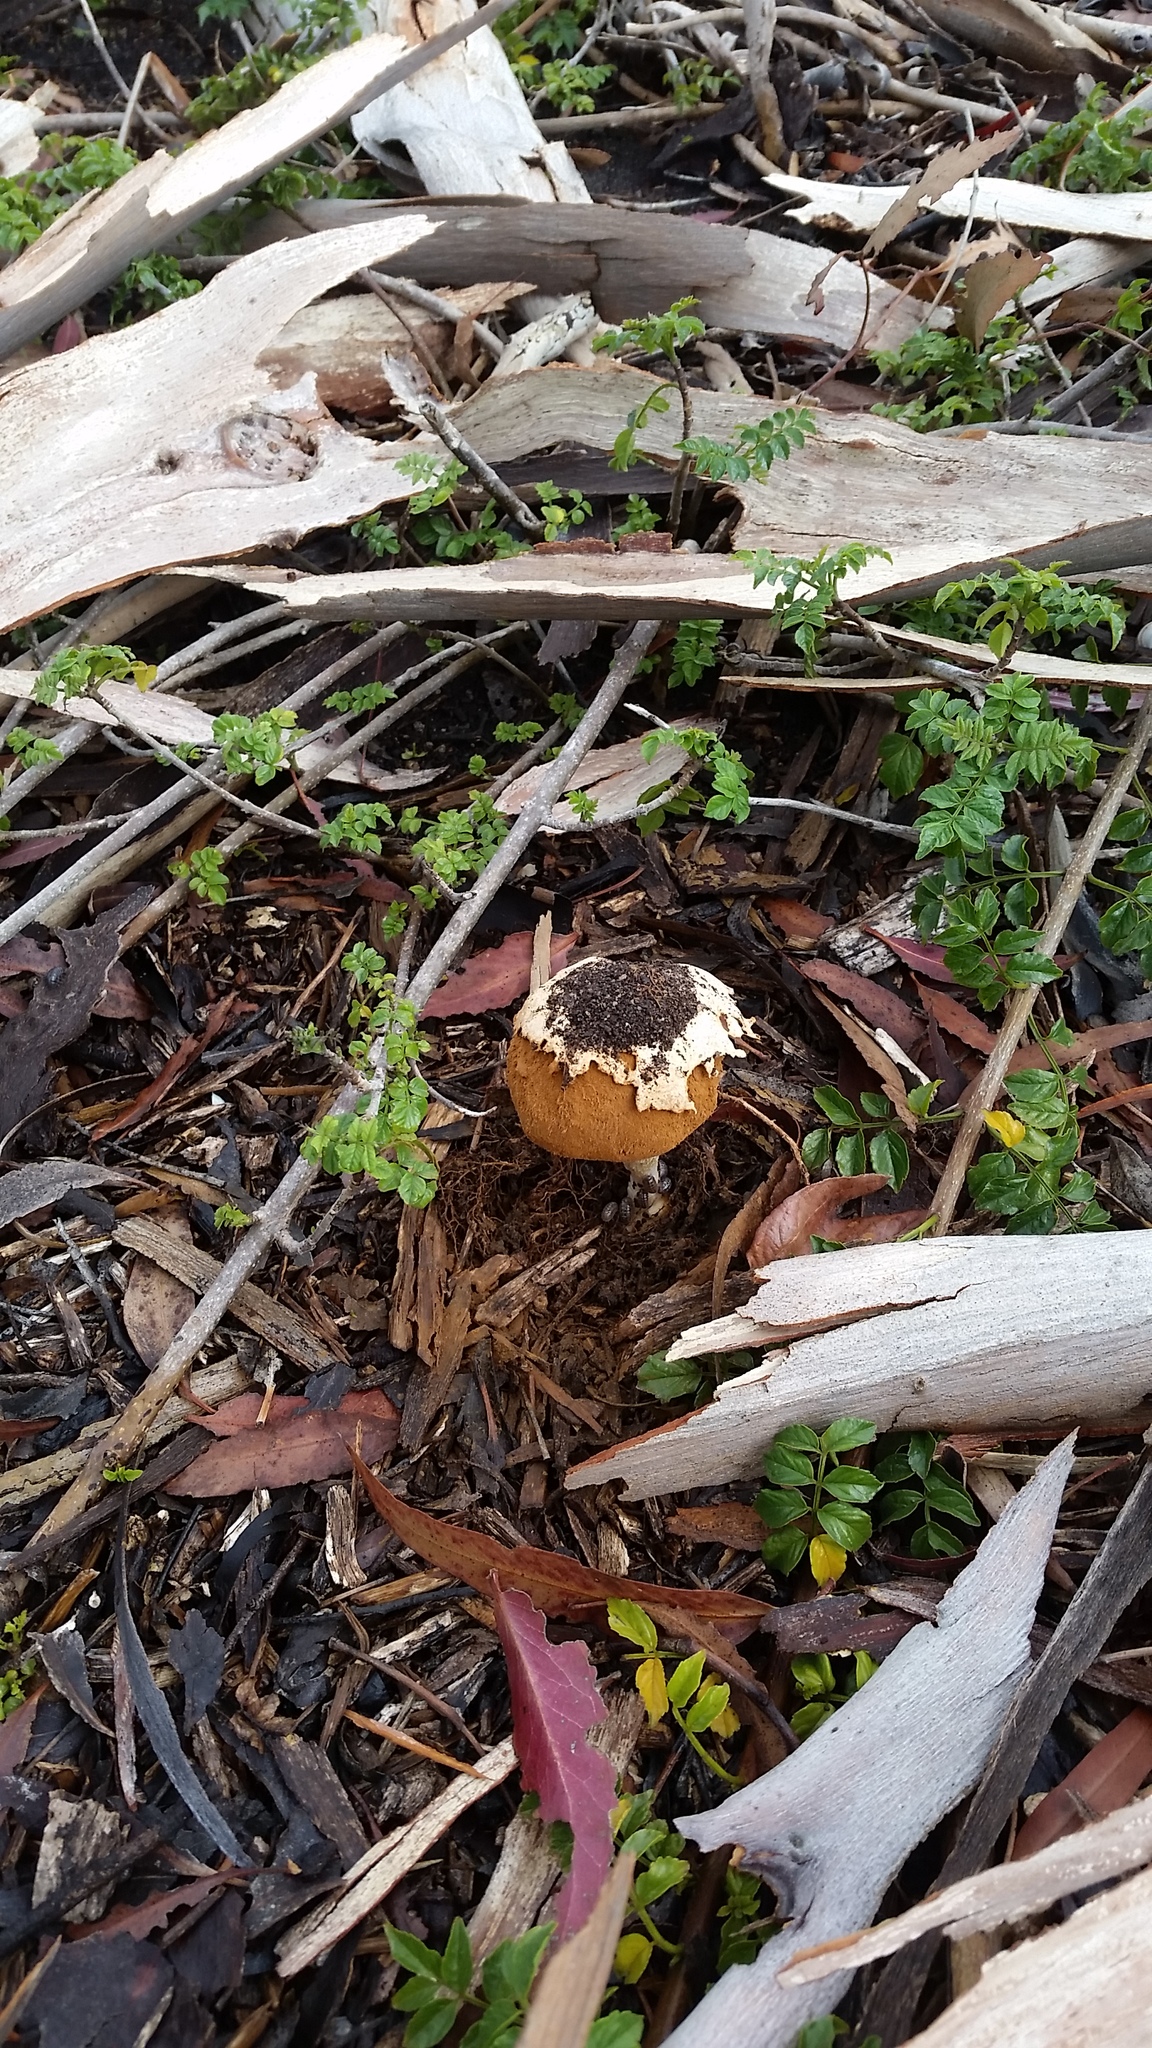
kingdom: Fungi
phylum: Basidiomycota
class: Agaricomycetes
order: Agaricales
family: Agaricaceae
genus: Battarrea
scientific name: Battarrea phalloides
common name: Sandy stiltball
